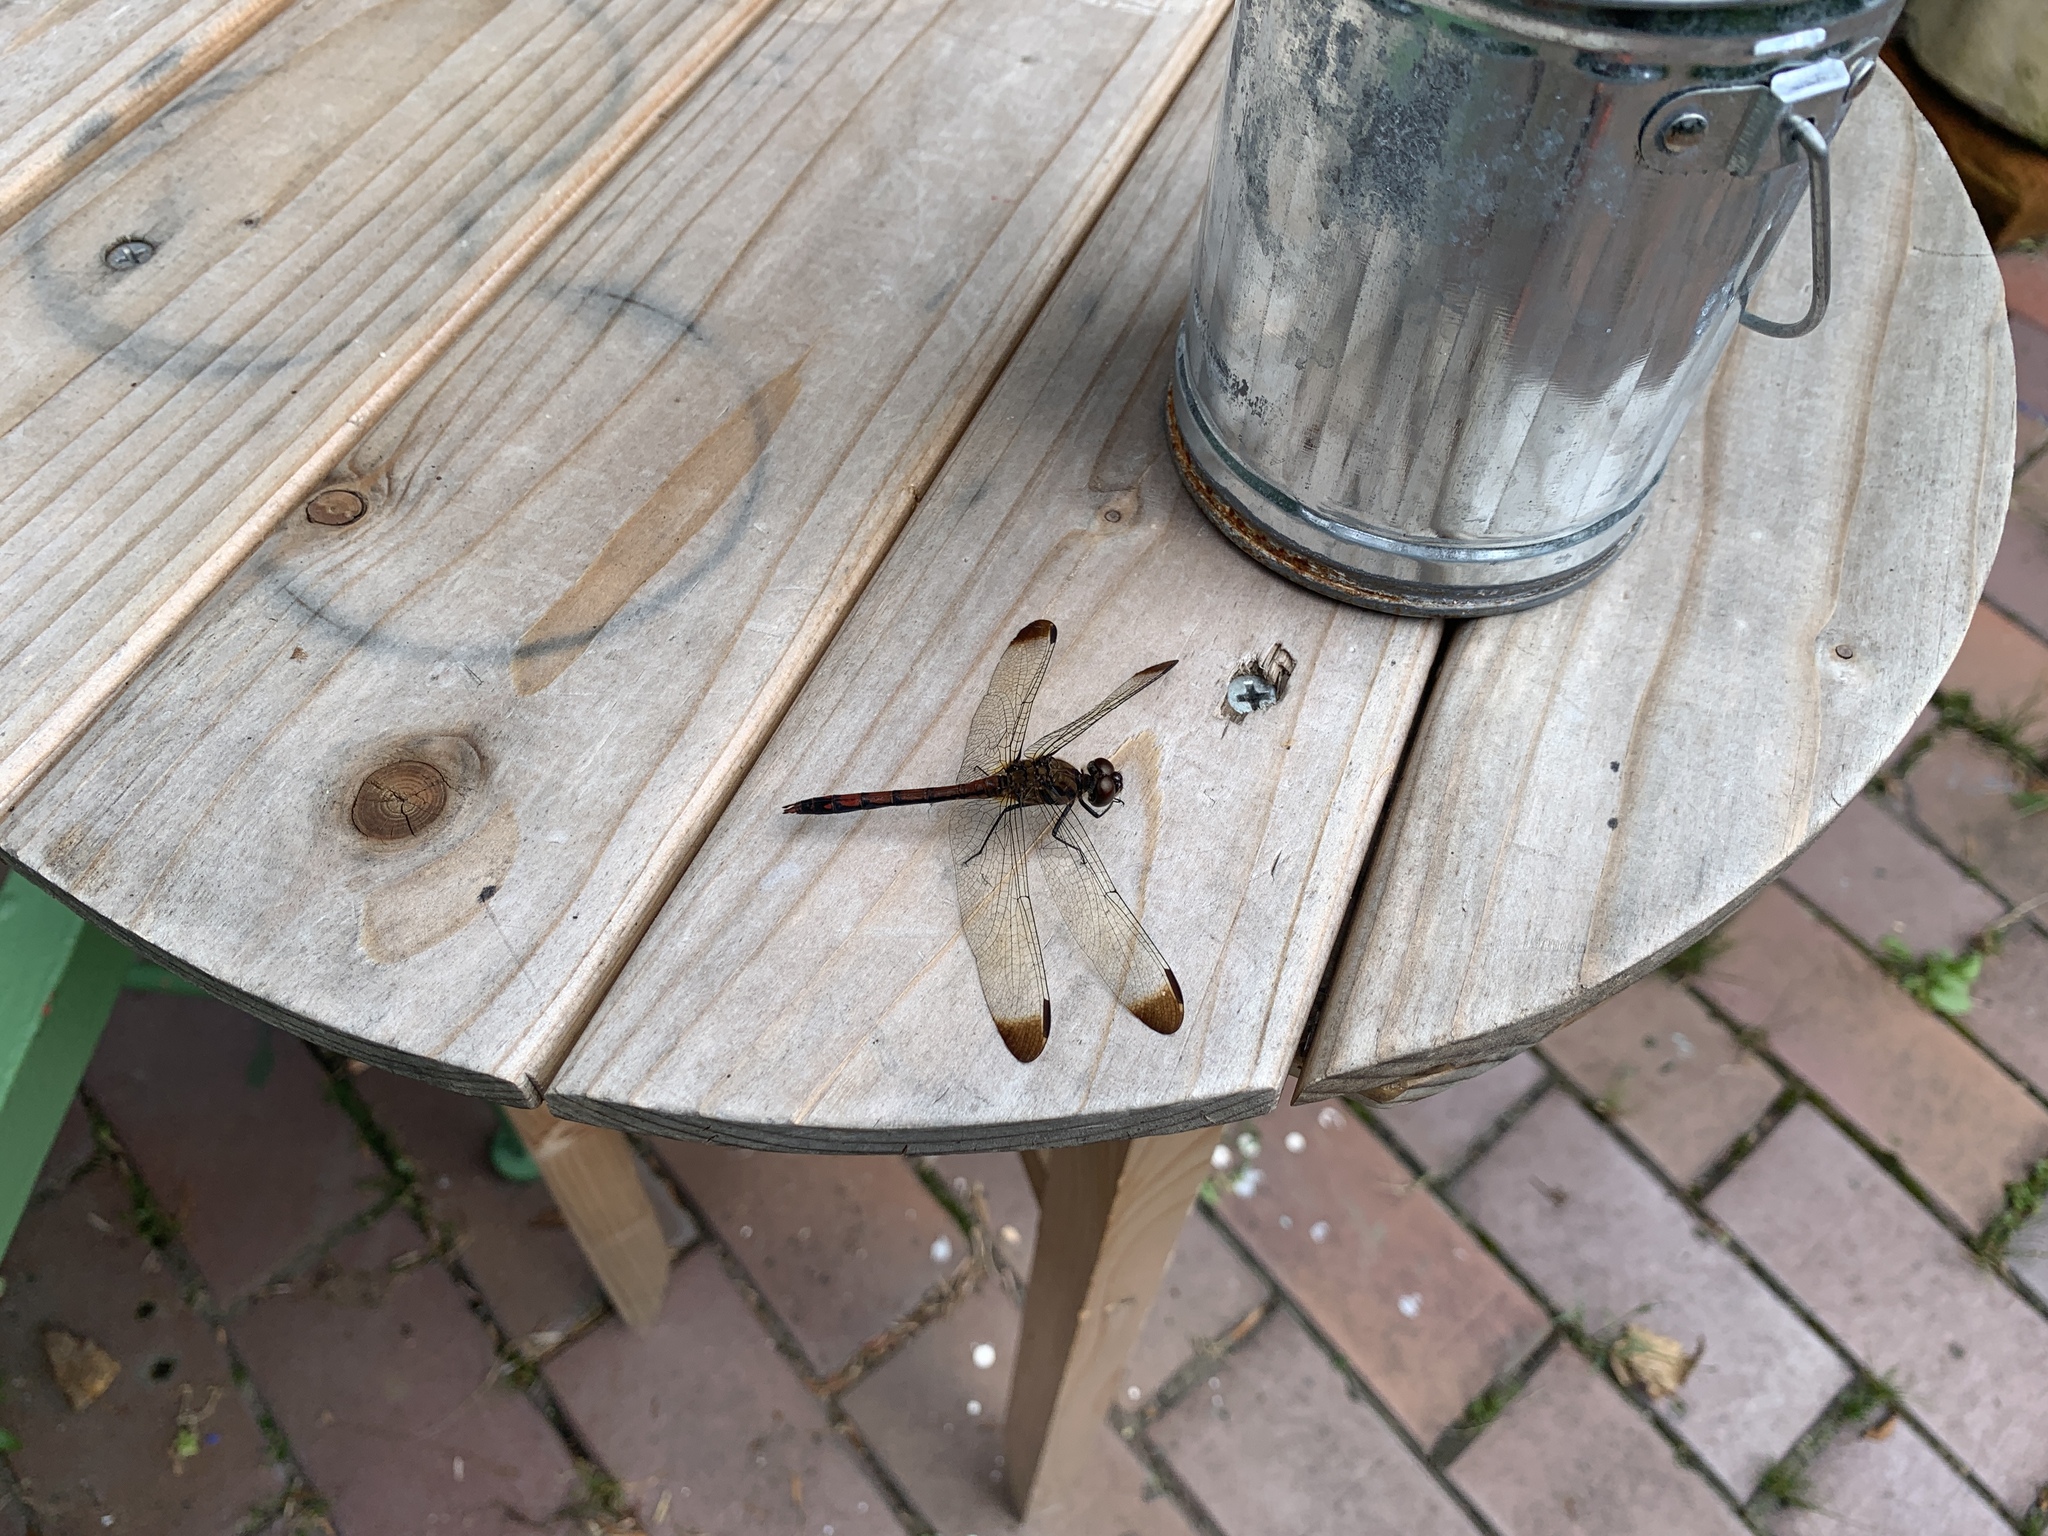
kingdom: Animalia
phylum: Arthropoda
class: Insecta
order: Odonata
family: Libellulidae
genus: Sympetrum
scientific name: Sympetrum infuscatum
